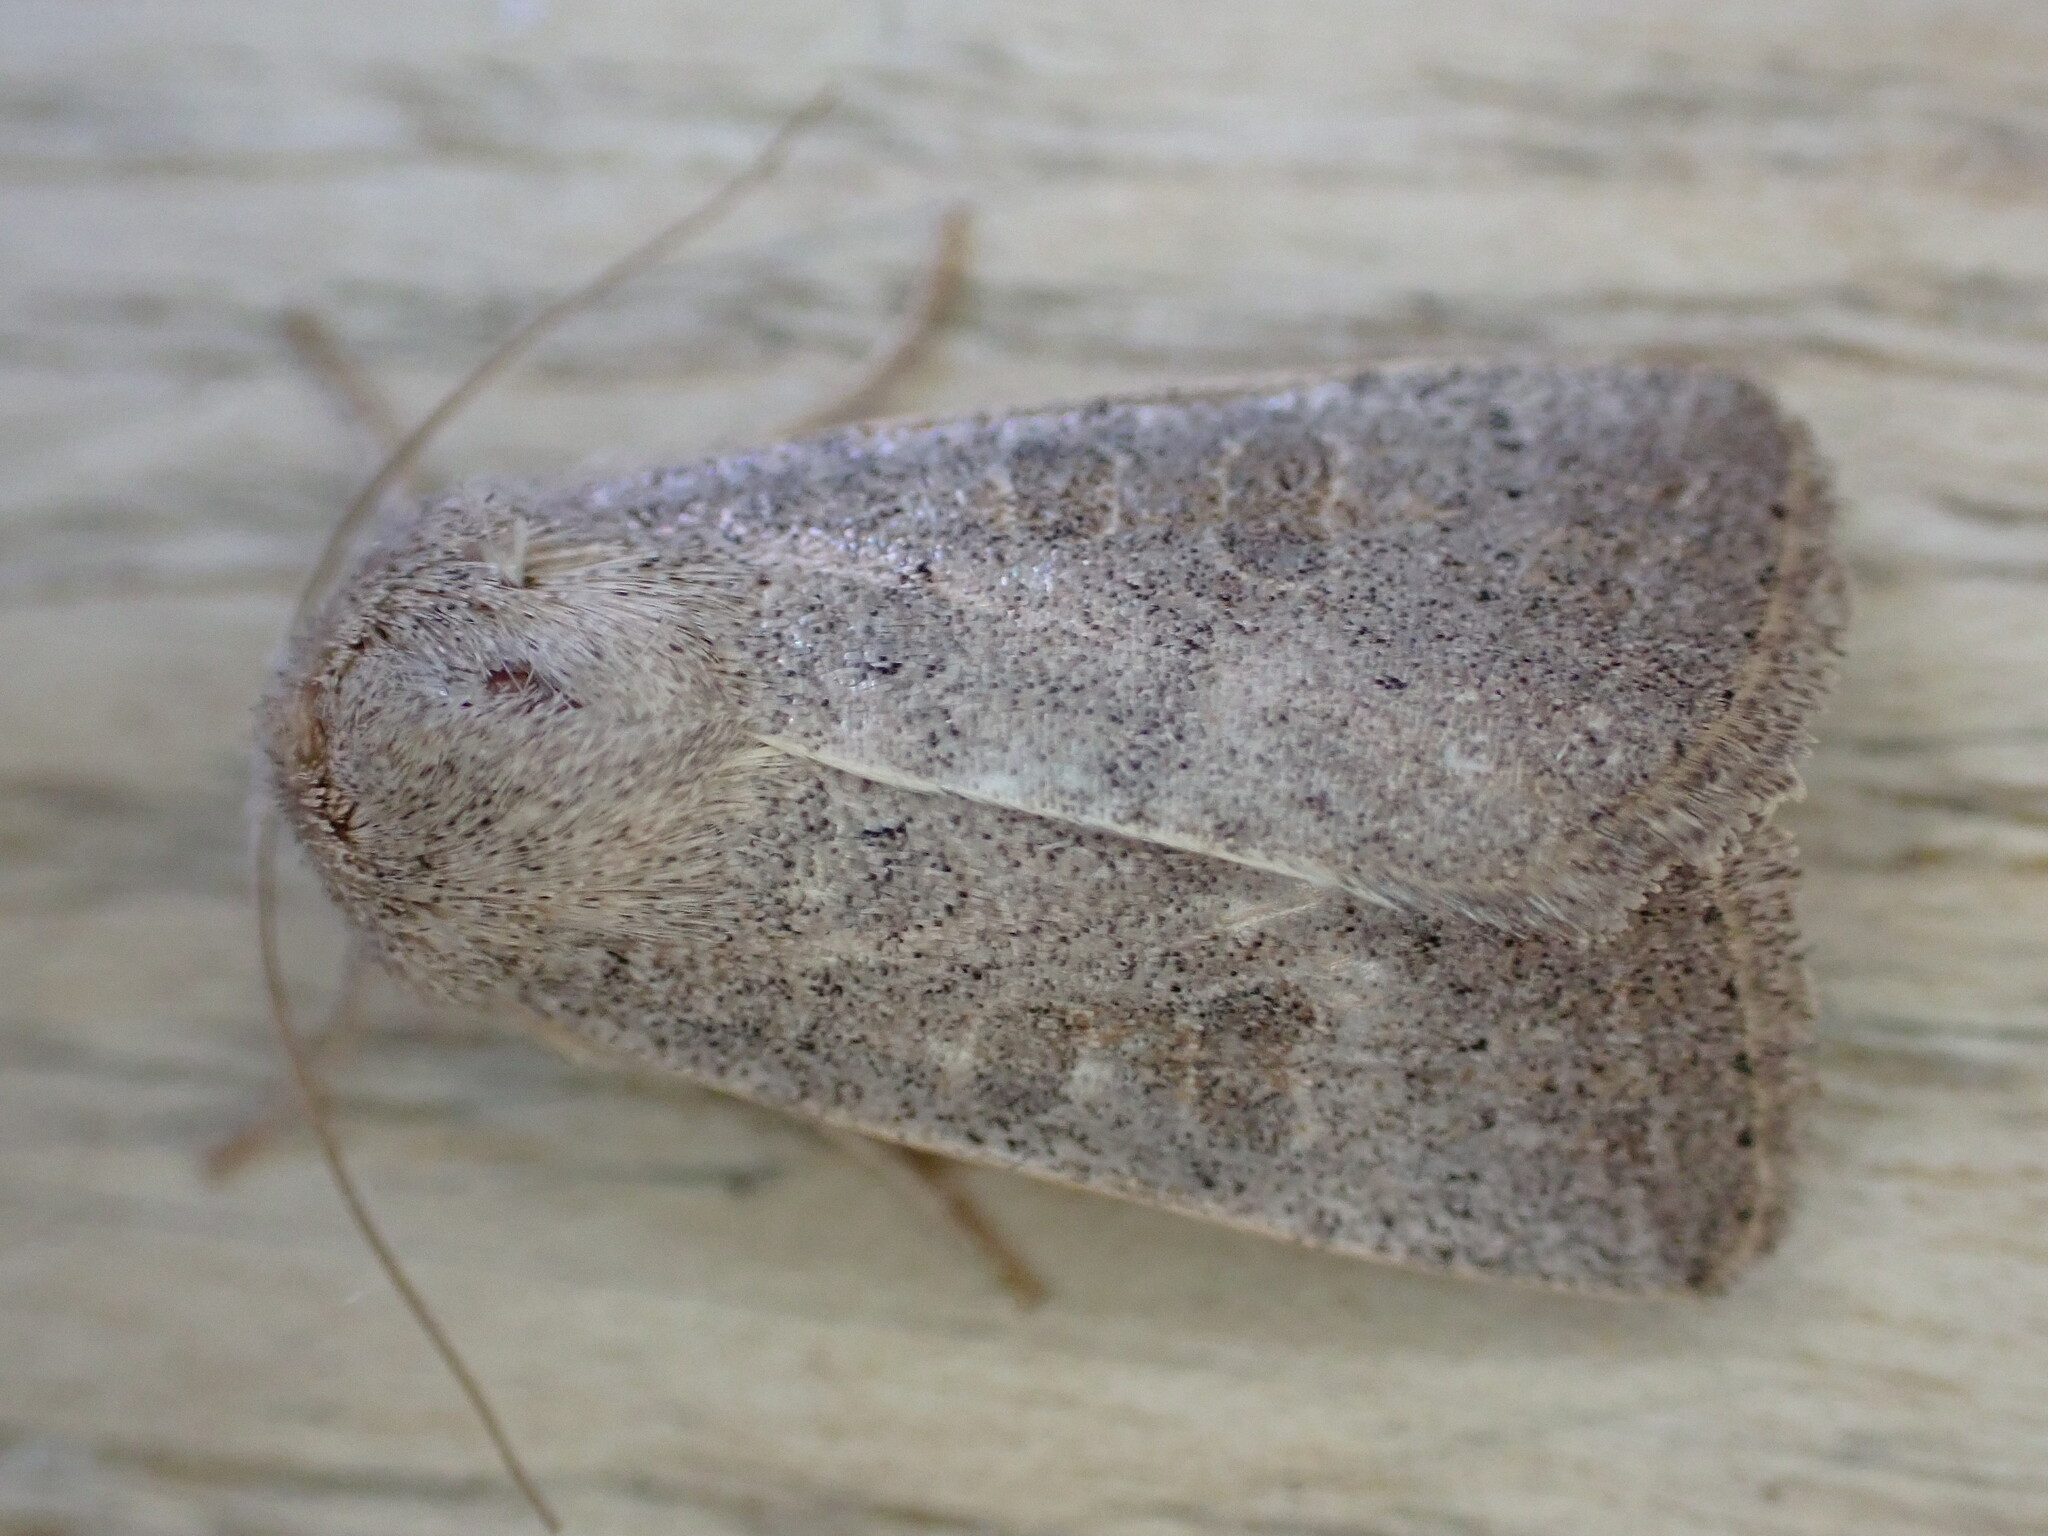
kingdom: Animalia
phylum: Arthropoda
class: Insecta
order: Lepidoptera
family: Noctuidae
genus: Hoplodrina
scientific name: Hoplodrina ambigua
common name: Vine's rustic
